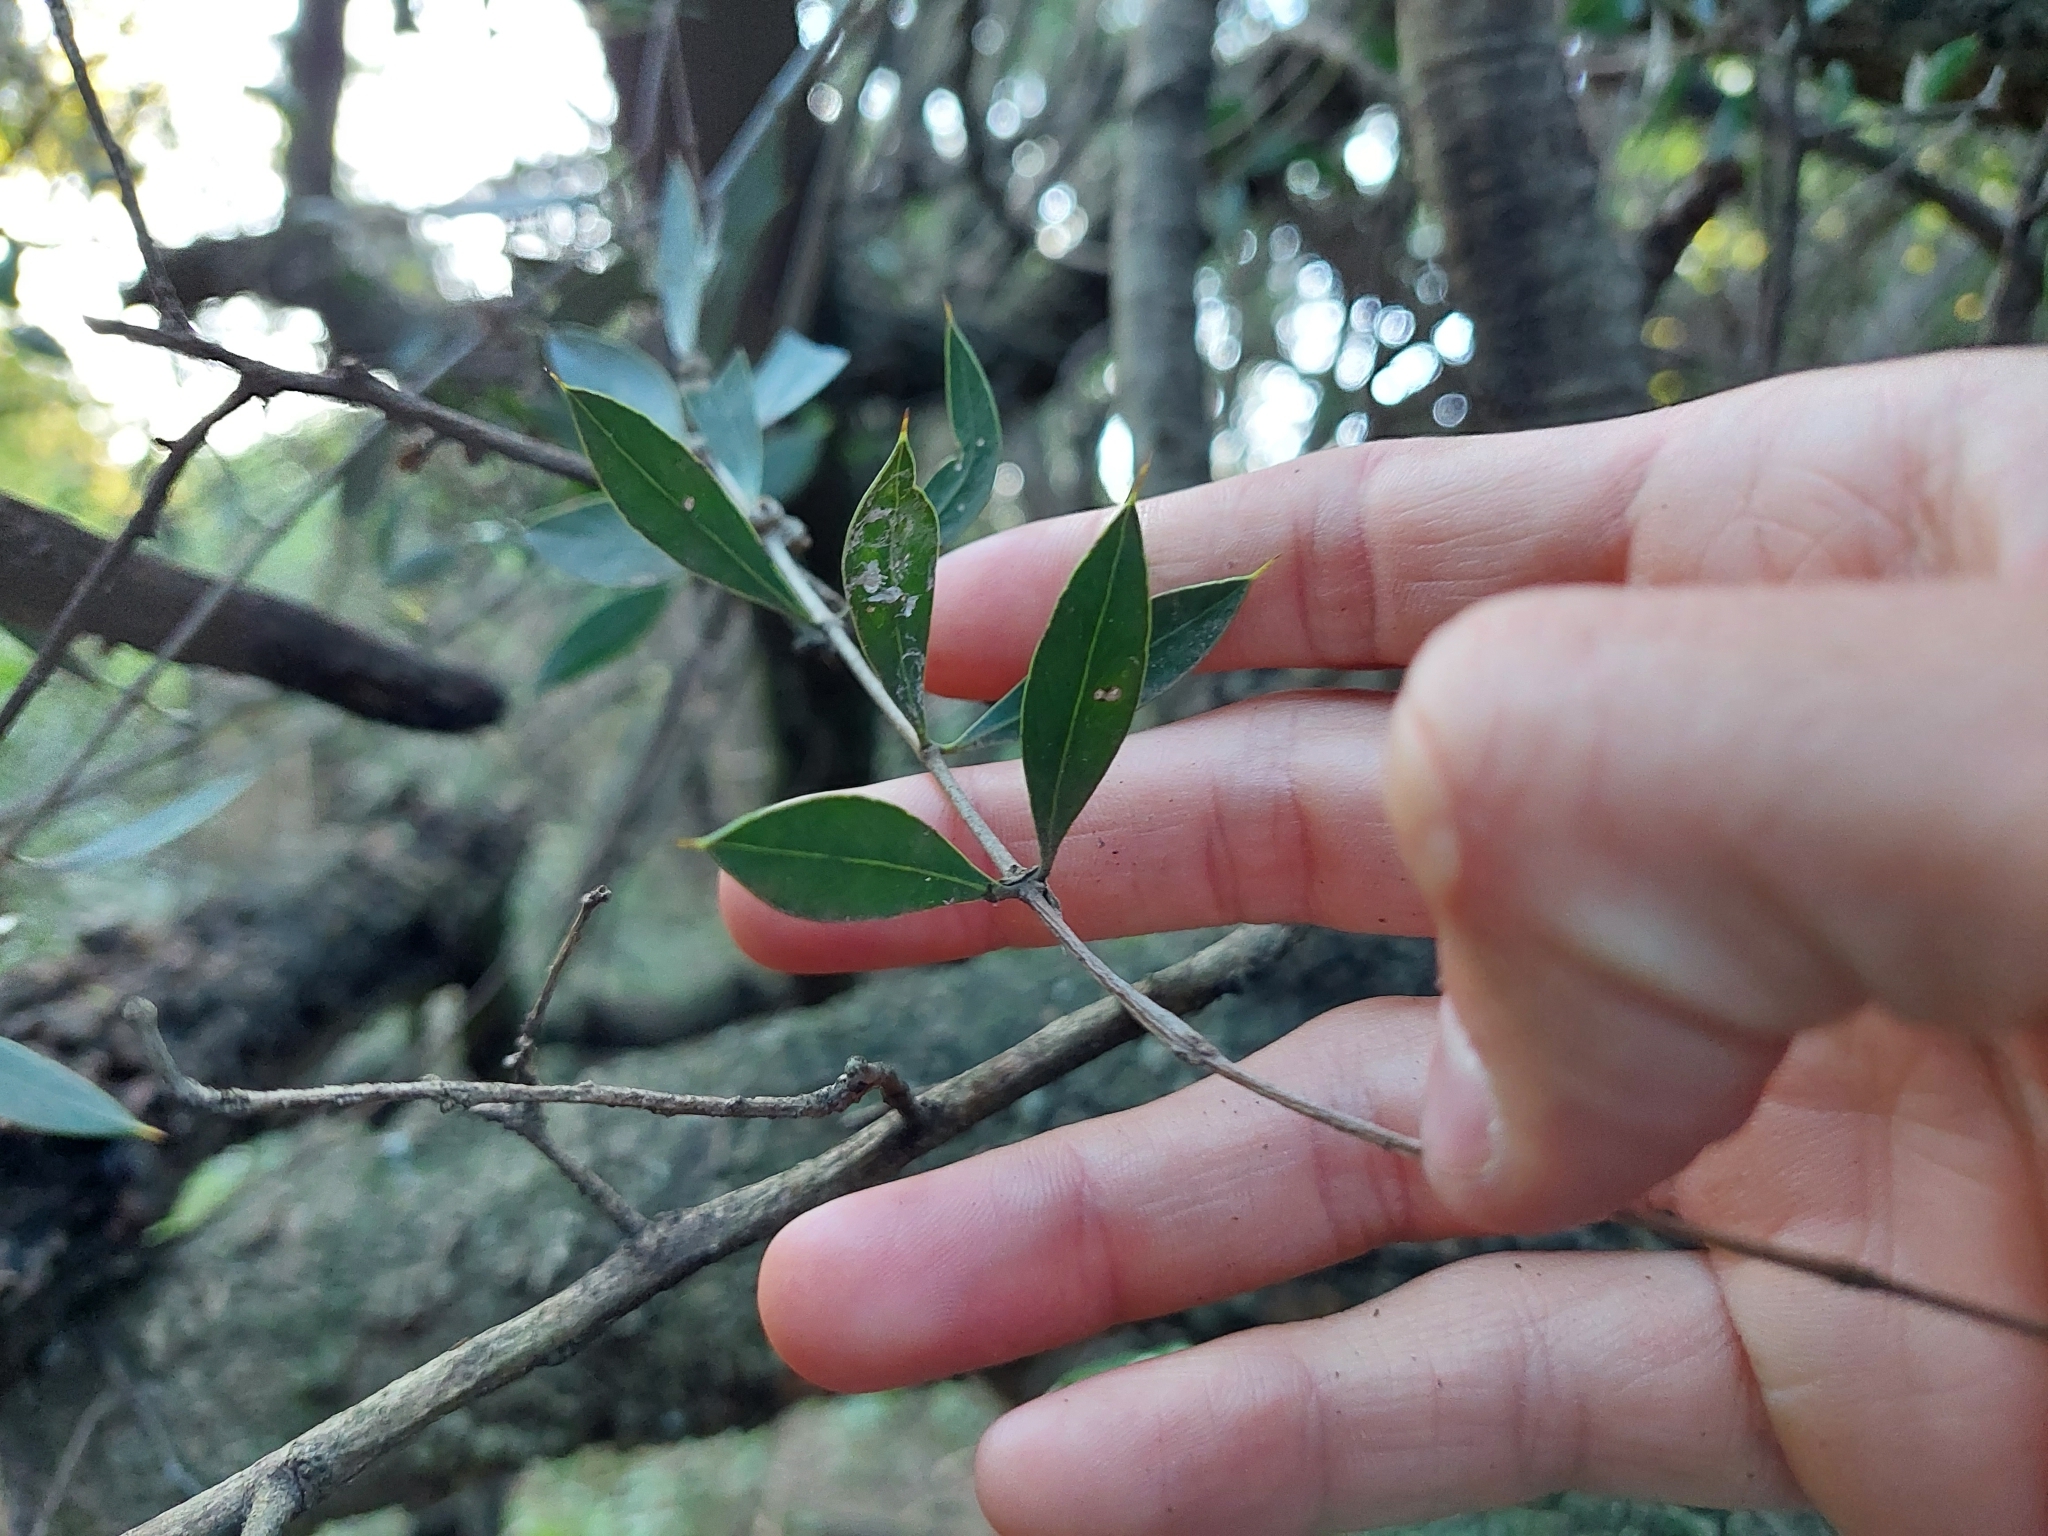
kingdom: Plantae
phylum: Tracheophyta
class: Magnoliopsida
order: Gentianales
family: Apocynaceae
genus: Aspidosperma
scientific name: Aspidosperma quebracho-blanco
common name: White quebracho
